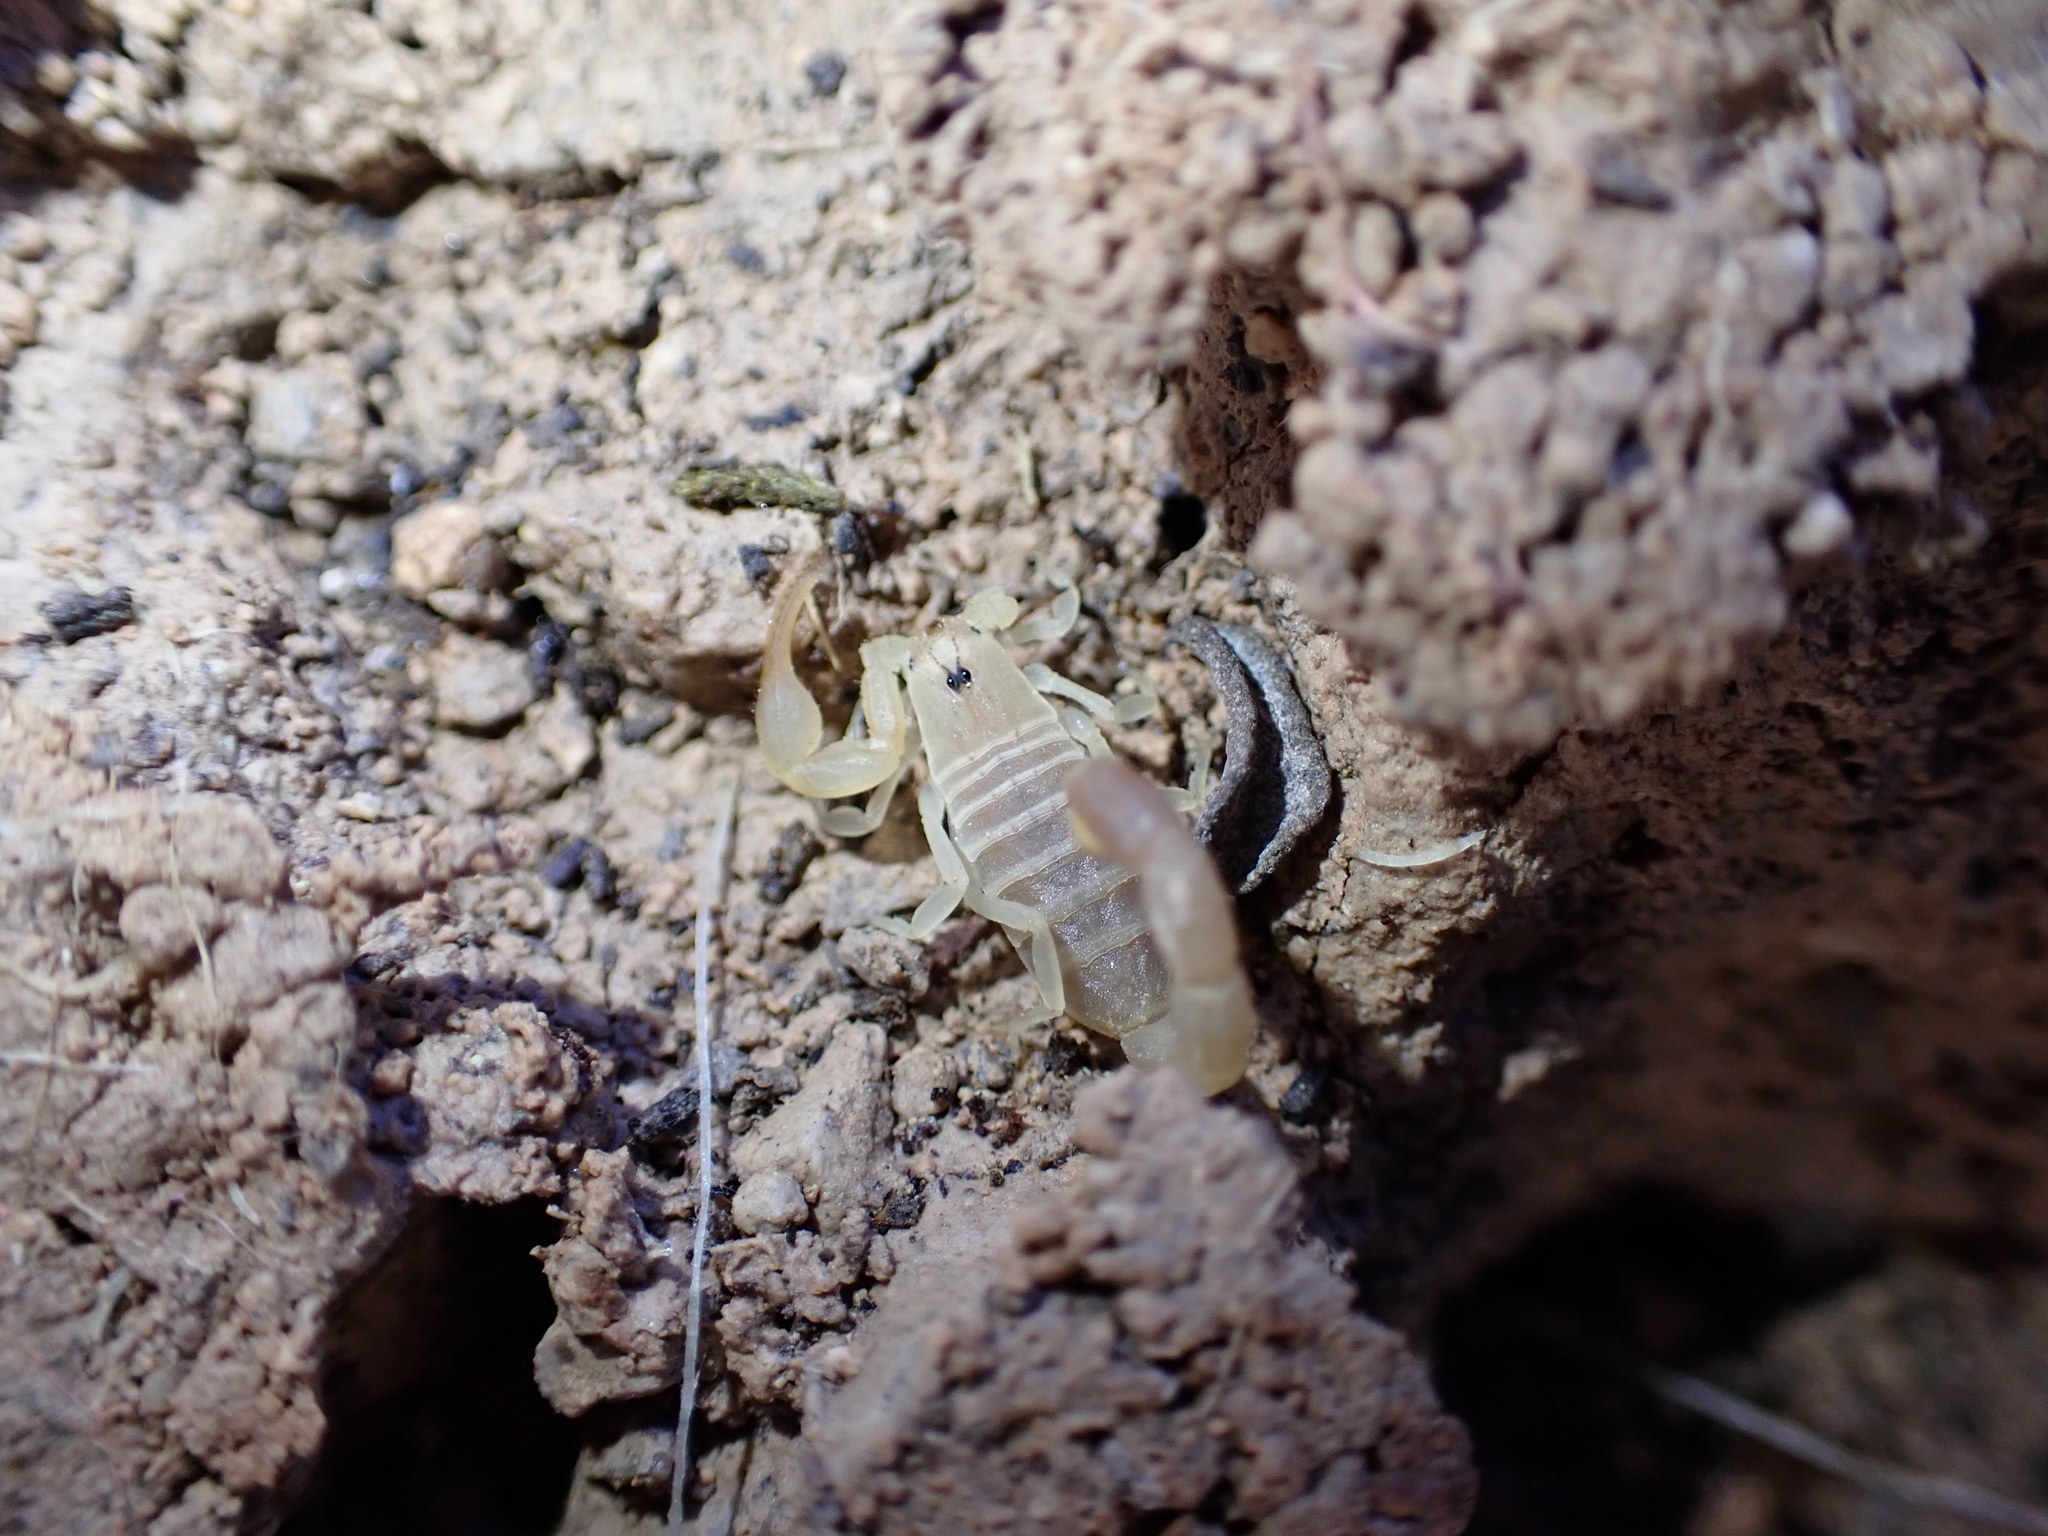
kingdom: Animalia
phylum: Arthropoda
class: Arachnida
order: Scorpiones
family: Buthidae
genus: Razianus
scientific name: Razianus zarudnyi
